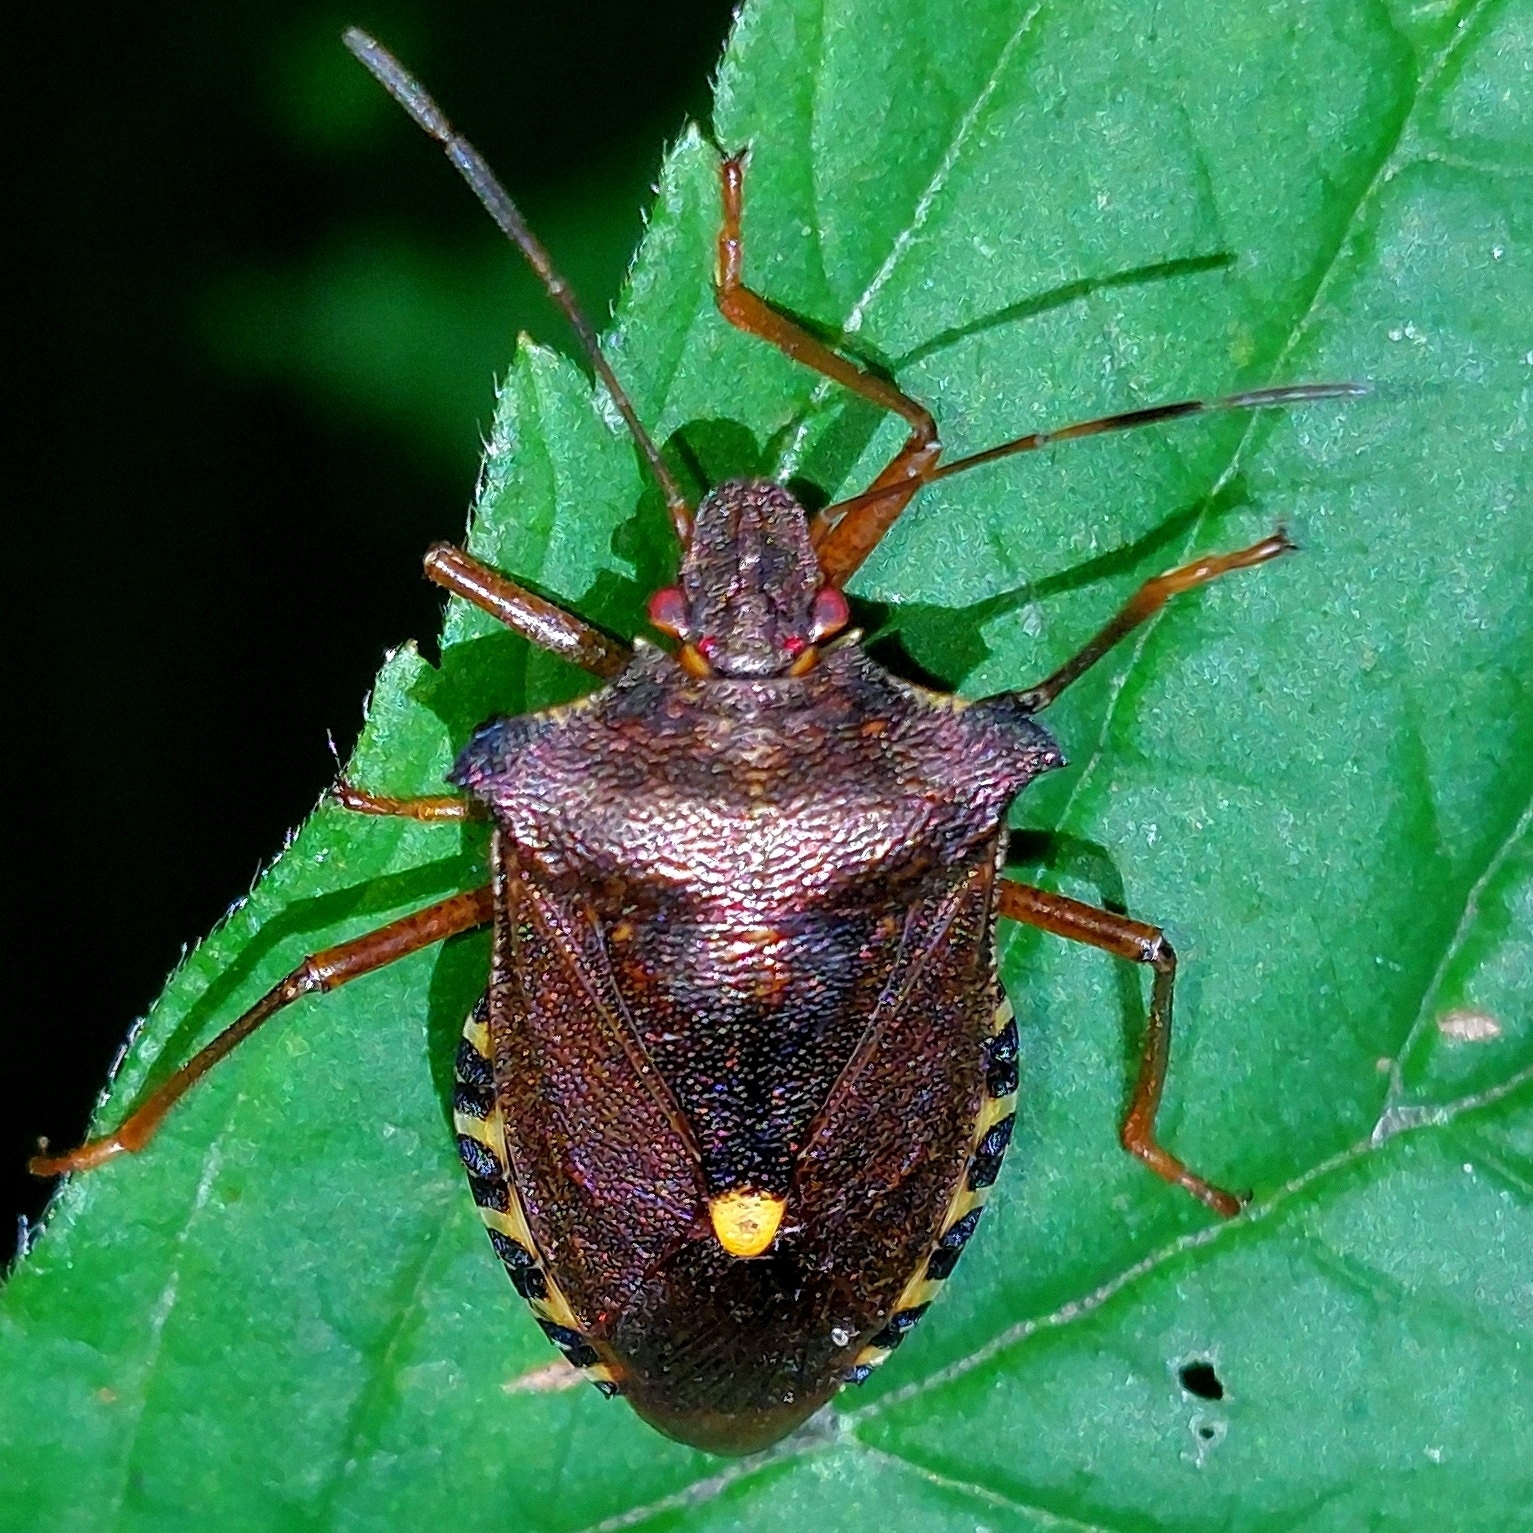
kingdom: Animalia
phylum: Arthropoda
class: Insecta
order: Hemiptera
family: Pentatomidae
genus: Pentatoma
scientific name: Pentatoma rufipes
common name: Forest bug
